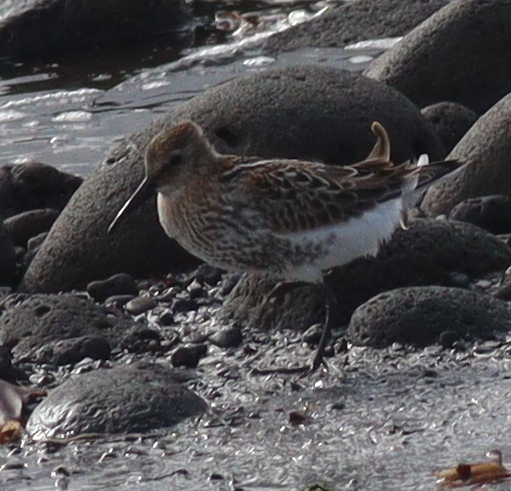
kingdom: Animalia
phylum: Chordata
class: Aves
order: Charadriiformes
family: Scolopacidae
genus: Calidris
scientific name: Calidris alpina
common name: Dunlin
